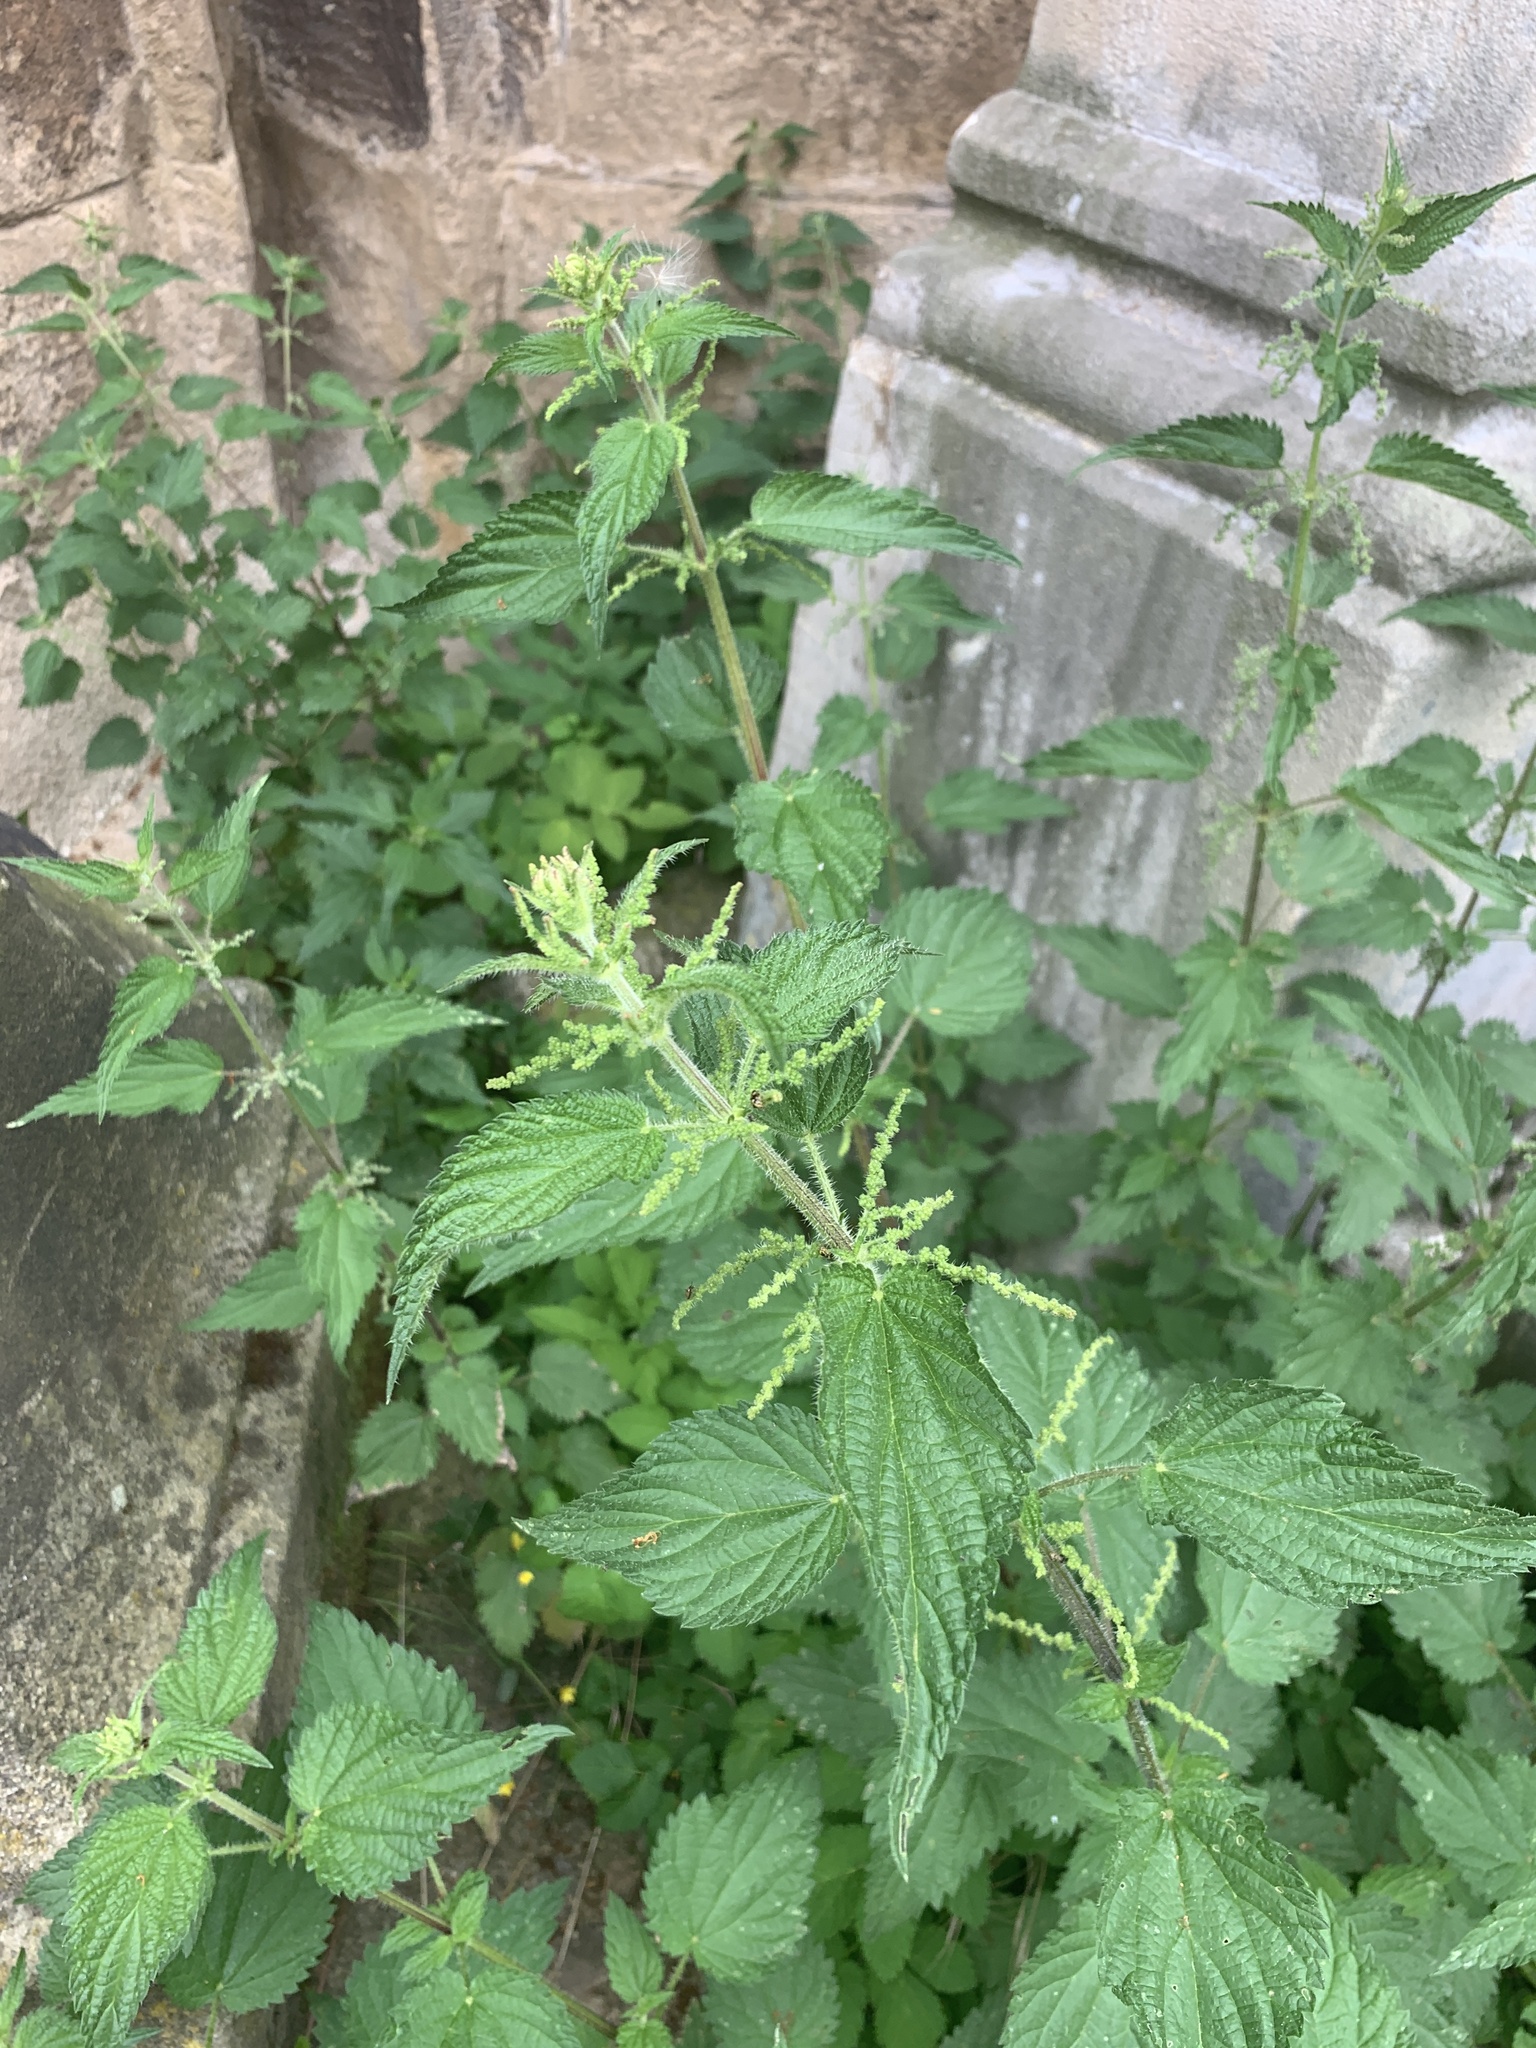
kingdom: Plantae
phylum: Tracheophyta
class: Magnoliopsida
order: Rosales
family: Urticaceae
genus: Urtica
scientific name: Urtica dioica
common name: Common nettle
